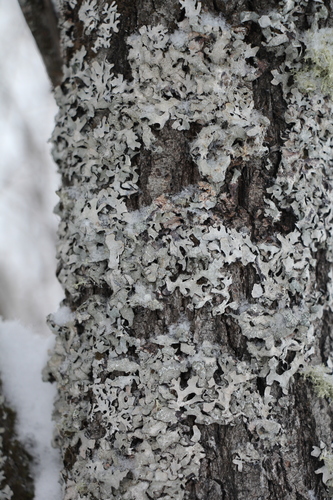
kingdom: Fungi
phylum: Ascomycota
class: Lecanoromycetes
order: Lecanorales
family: Parmeliaceae
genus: Parmelia
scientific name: Parmelia
